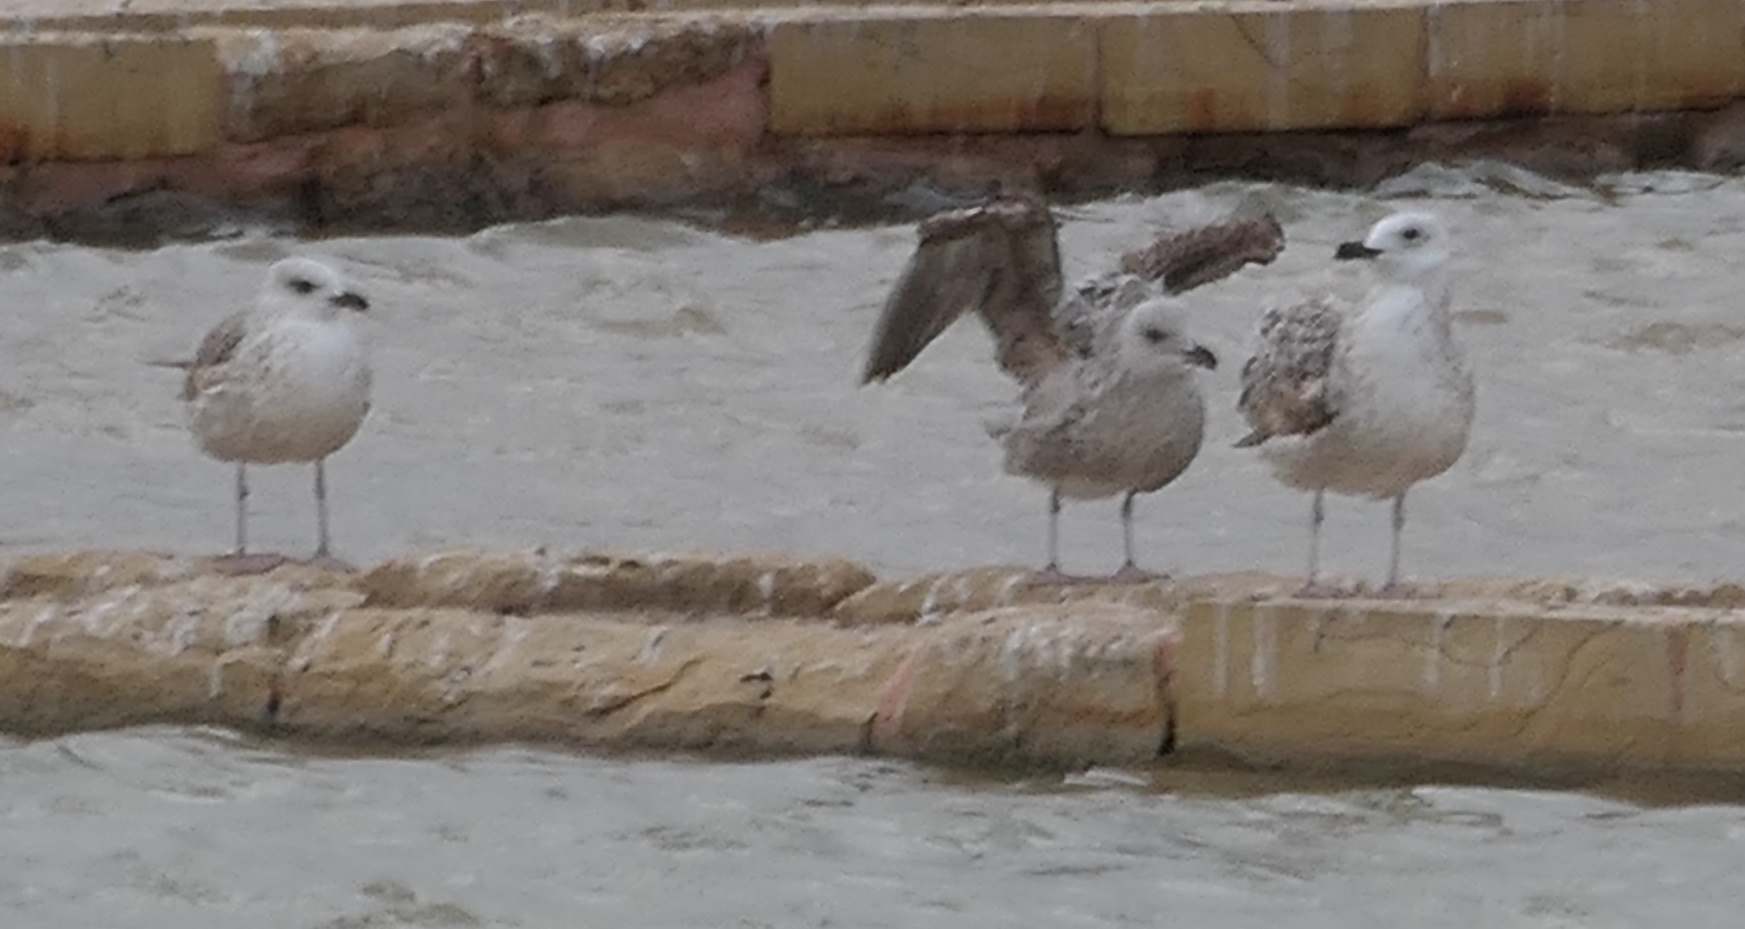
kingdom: Animalia
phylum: Chordata
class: Aves
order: Charadriiformes
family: Laridae
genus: Larus
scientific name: Larus michahellis
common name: Yellow-legged gull
